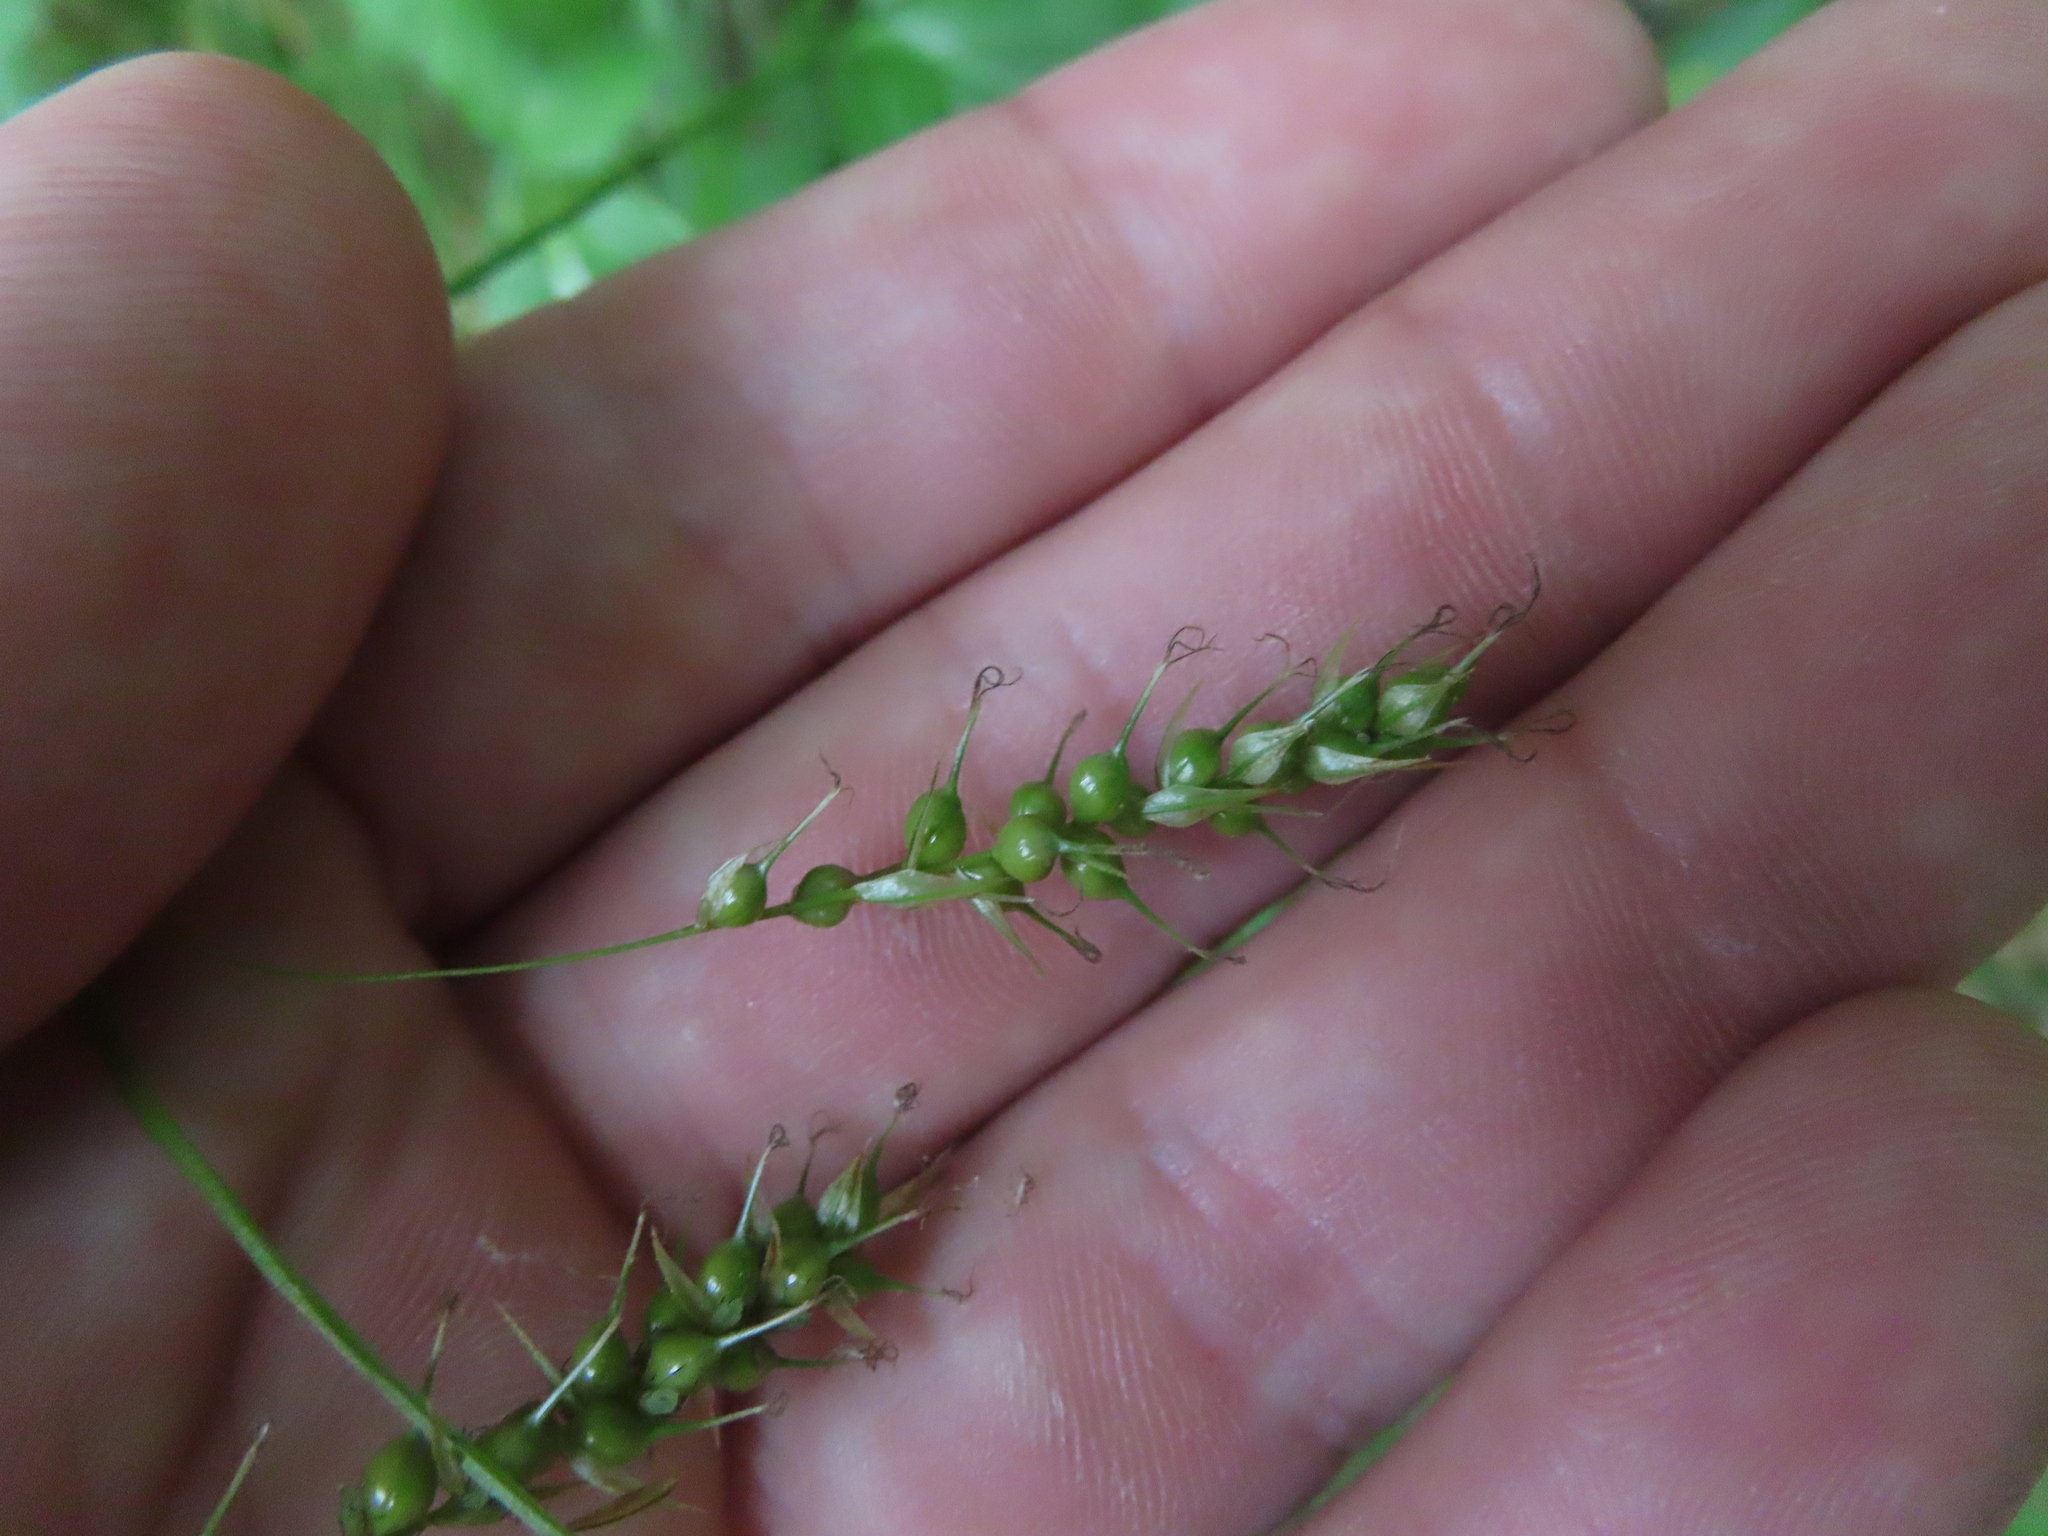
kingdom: Plantae
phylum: Tracheophyta
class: Liliopsida
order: Poales
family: Cyperaceae
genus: Carex
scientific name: Carex sprengelii
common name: Long-beaked sedge
